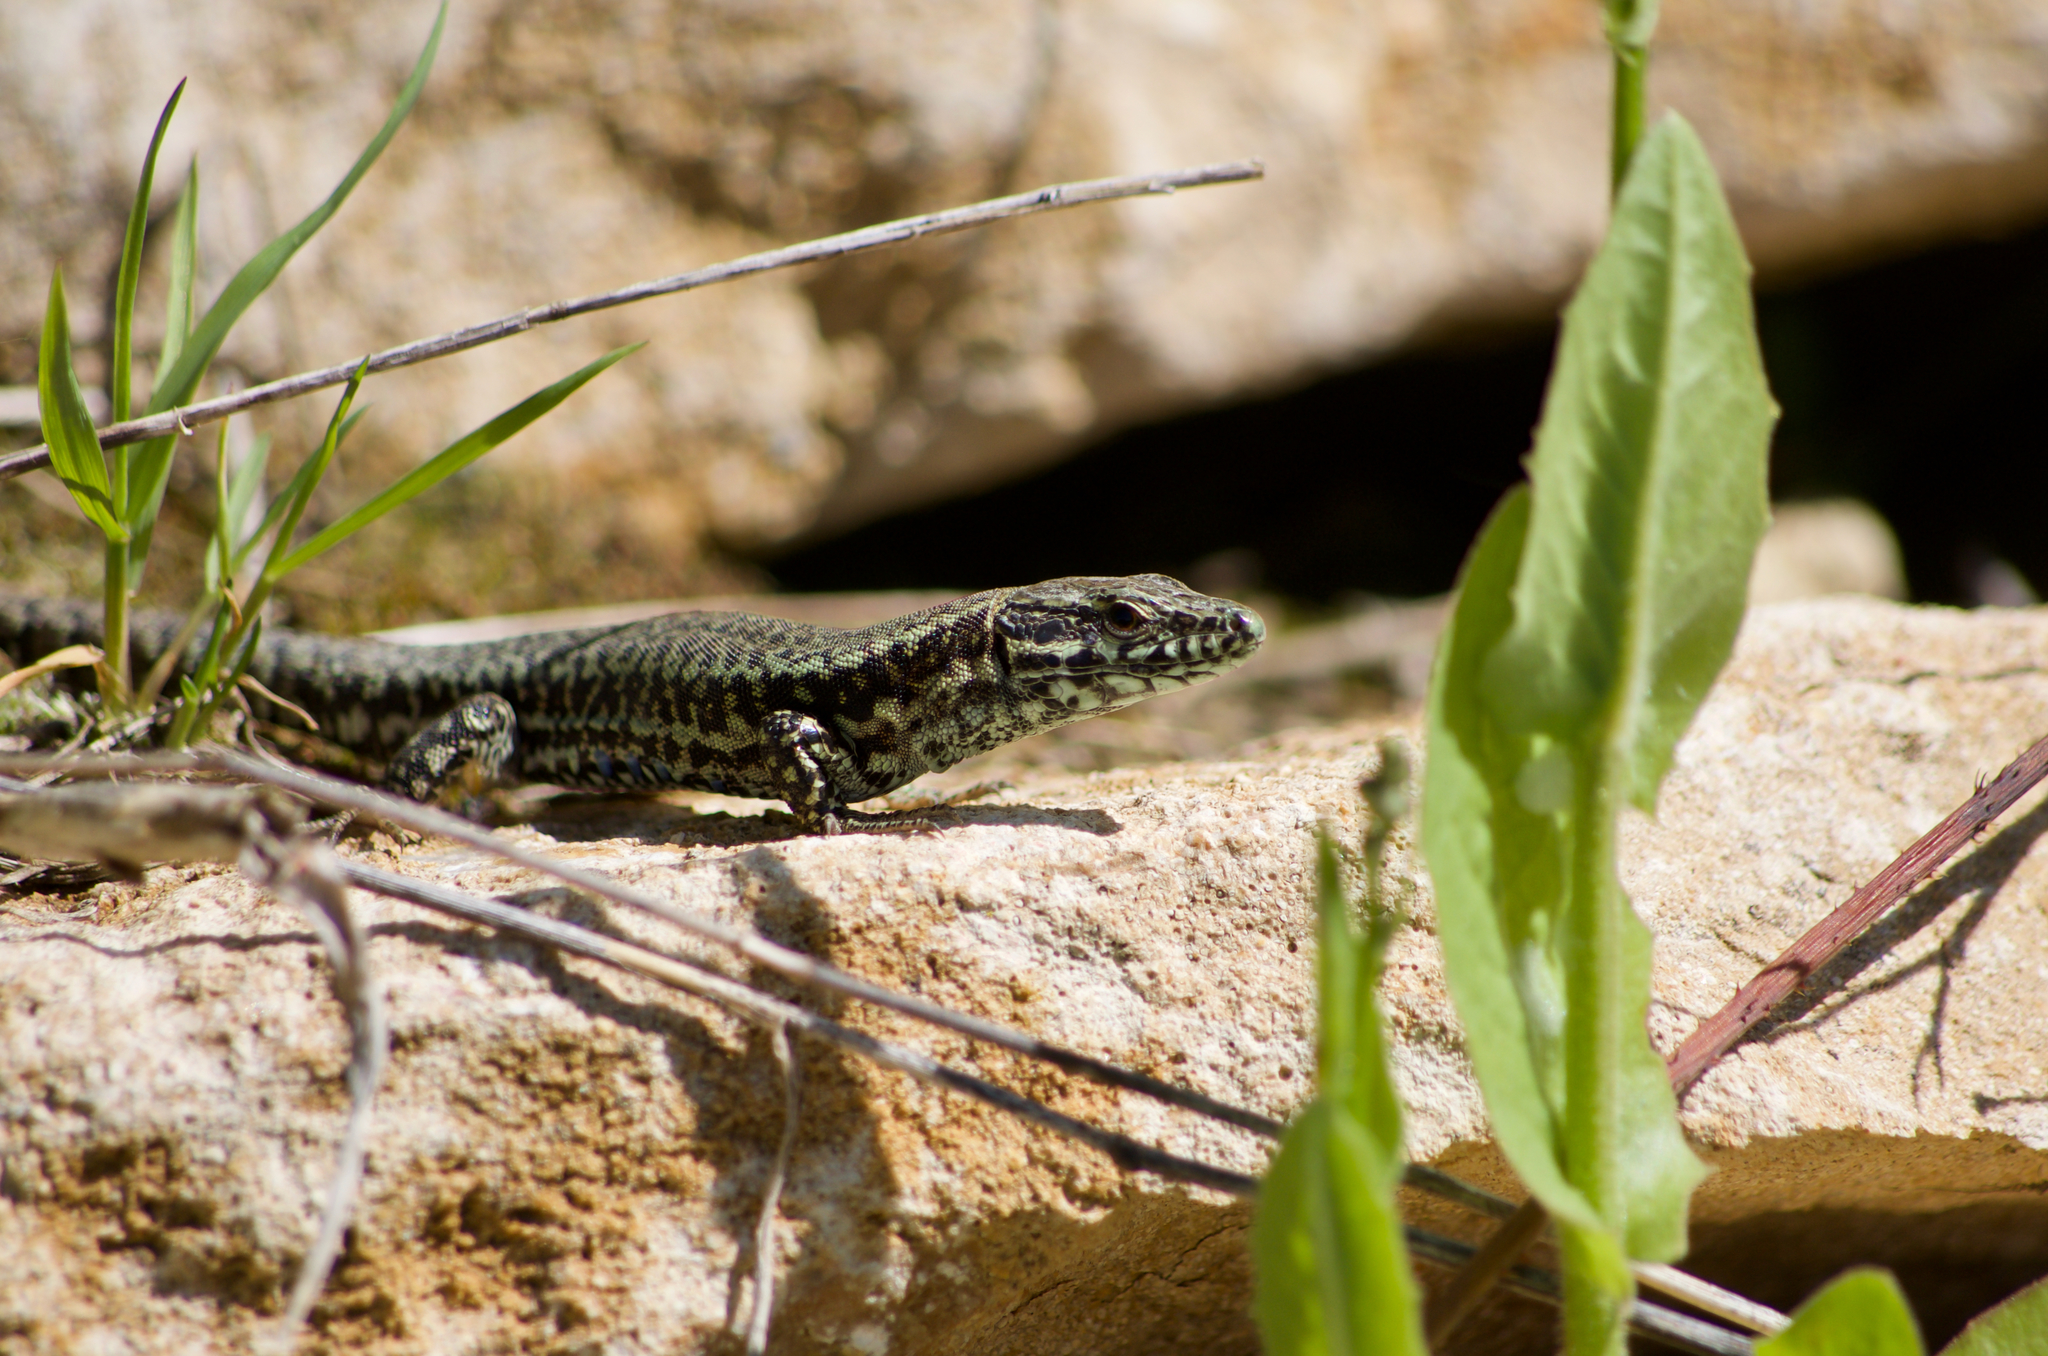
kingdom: Animalia
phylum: Chordata
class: Squamata
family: Lacertidae
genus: Podarcis
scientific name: Podarcis muralis
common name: Common wall lizard
